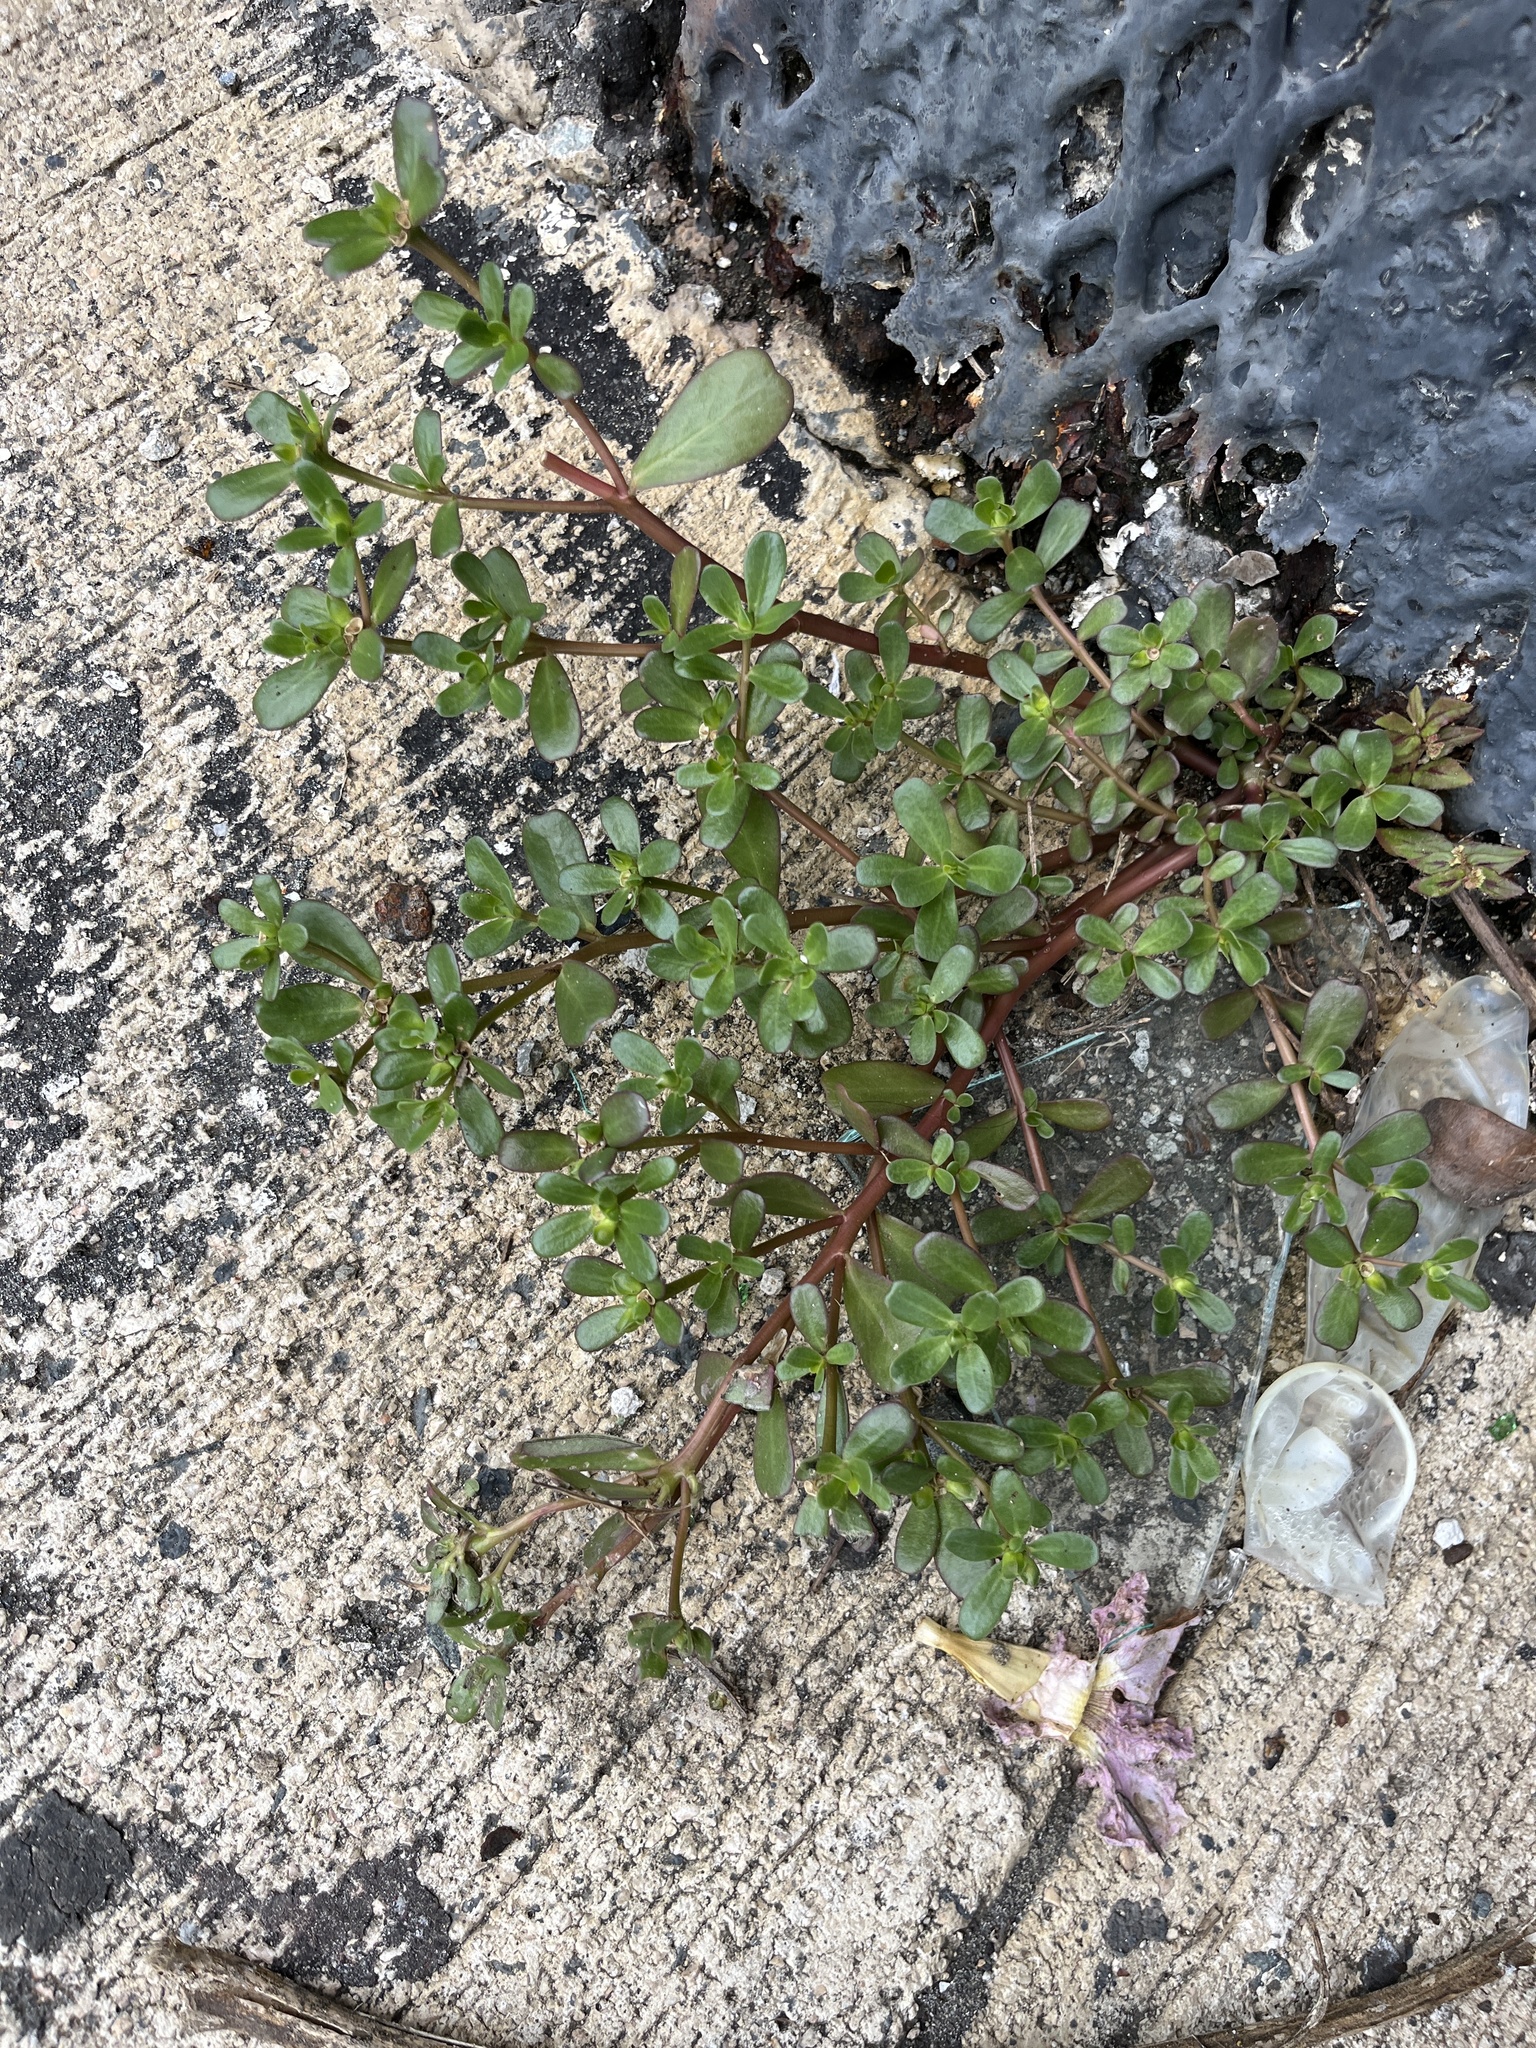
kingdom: Plantae
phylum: Tracheophyta
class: Magnoliopsida
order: Caryophyllales
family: Portulacaceae
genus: Portulaca
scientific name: Portulaca oleracea
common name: Common purslane
